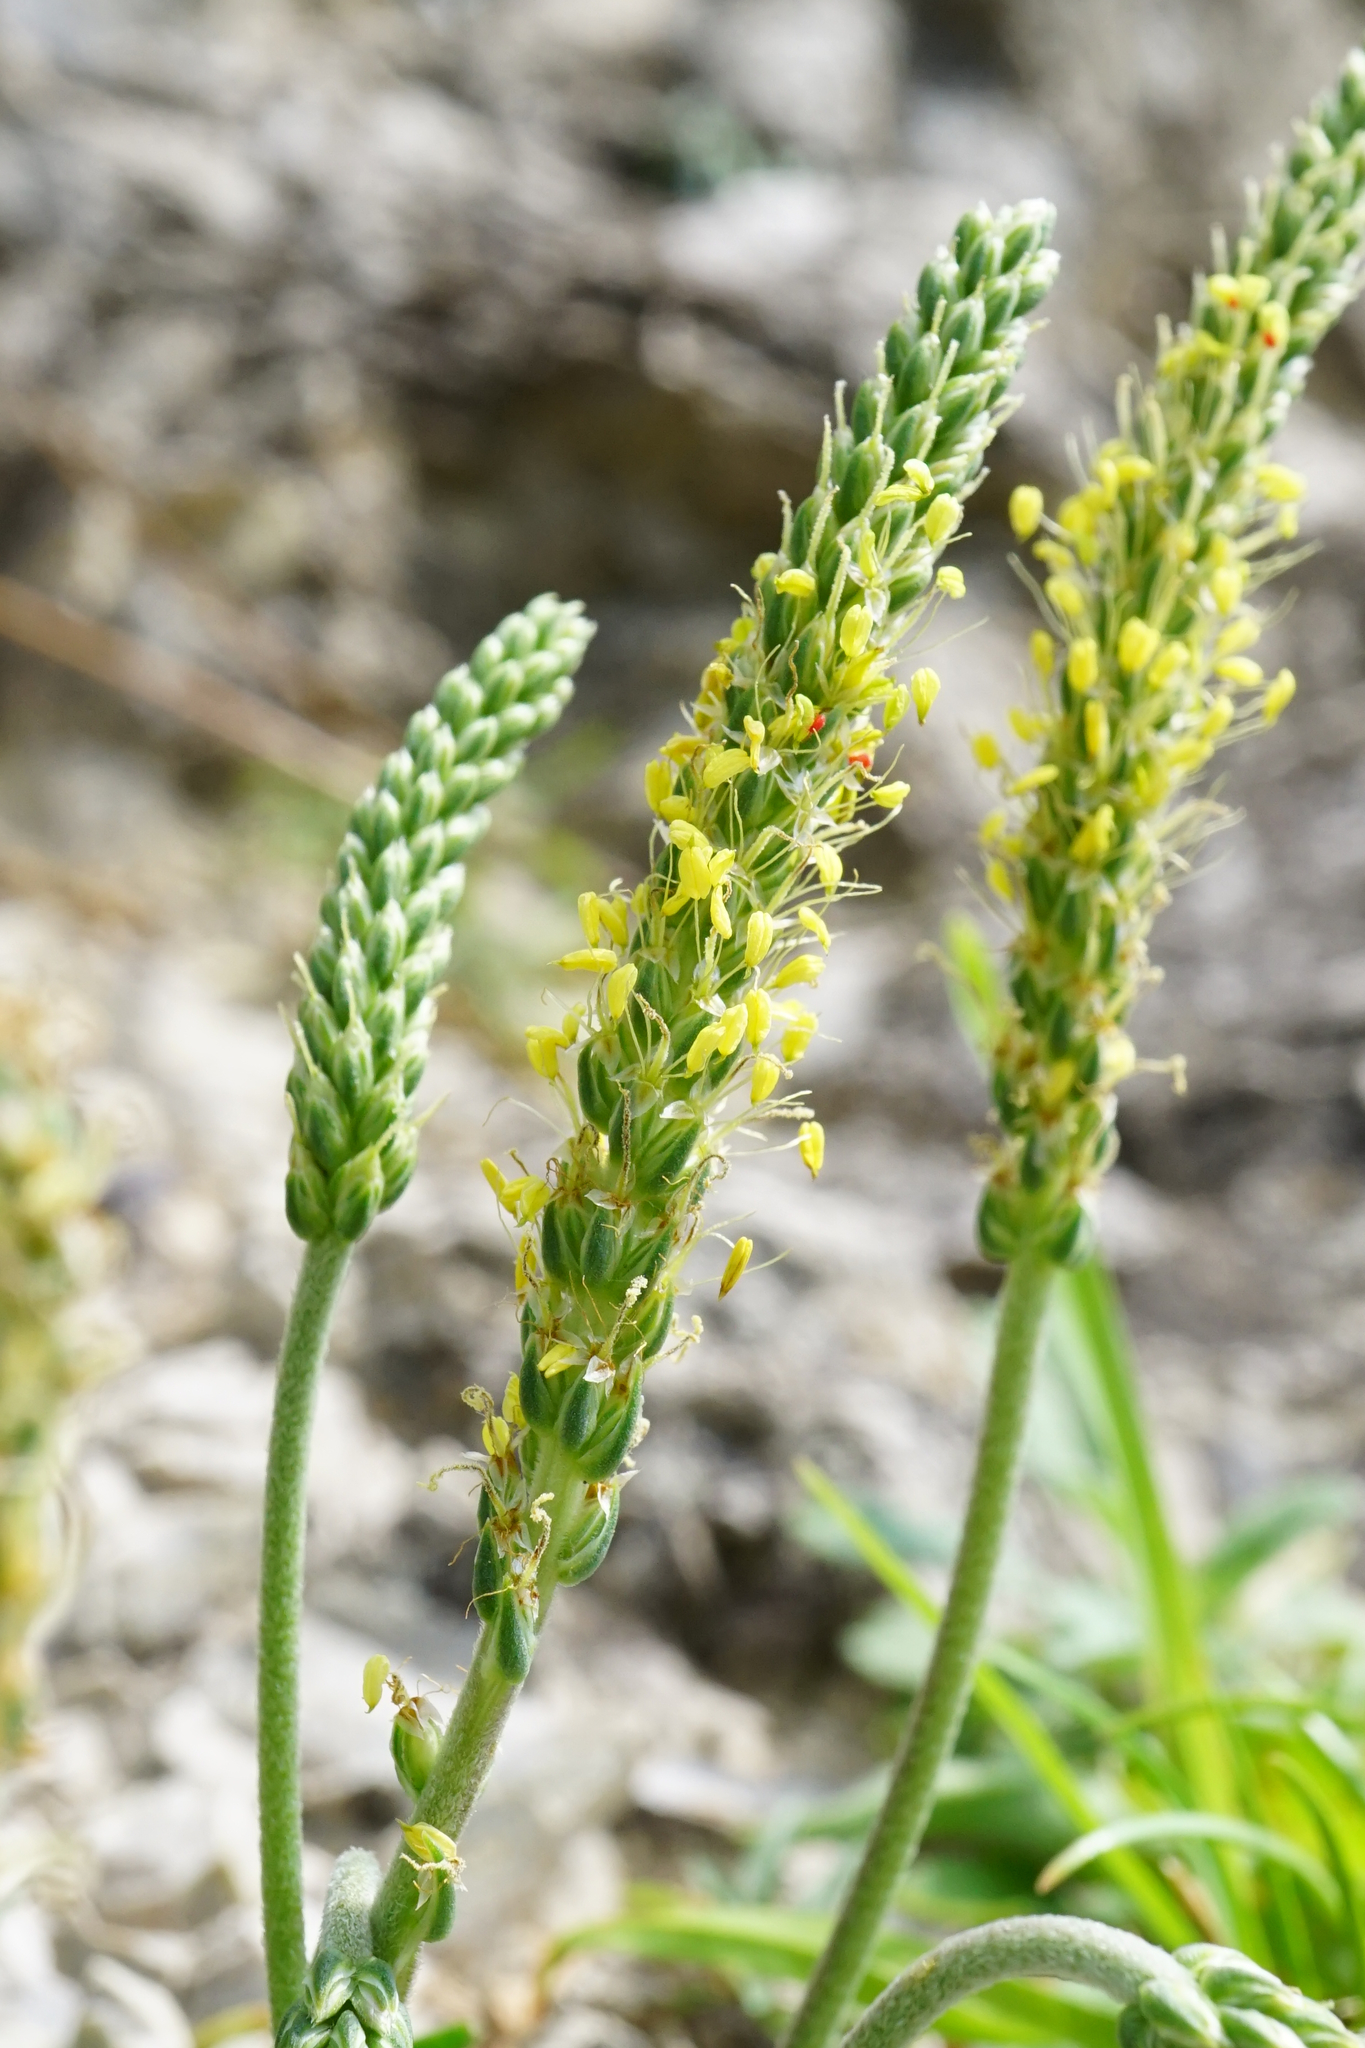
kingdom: Plantae
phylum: Tracheophyta
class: Magnoliopsida
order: Lamiales
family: Plantaginaceae
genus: Plantago
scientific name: Plantago maritima
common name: Sea plantain
